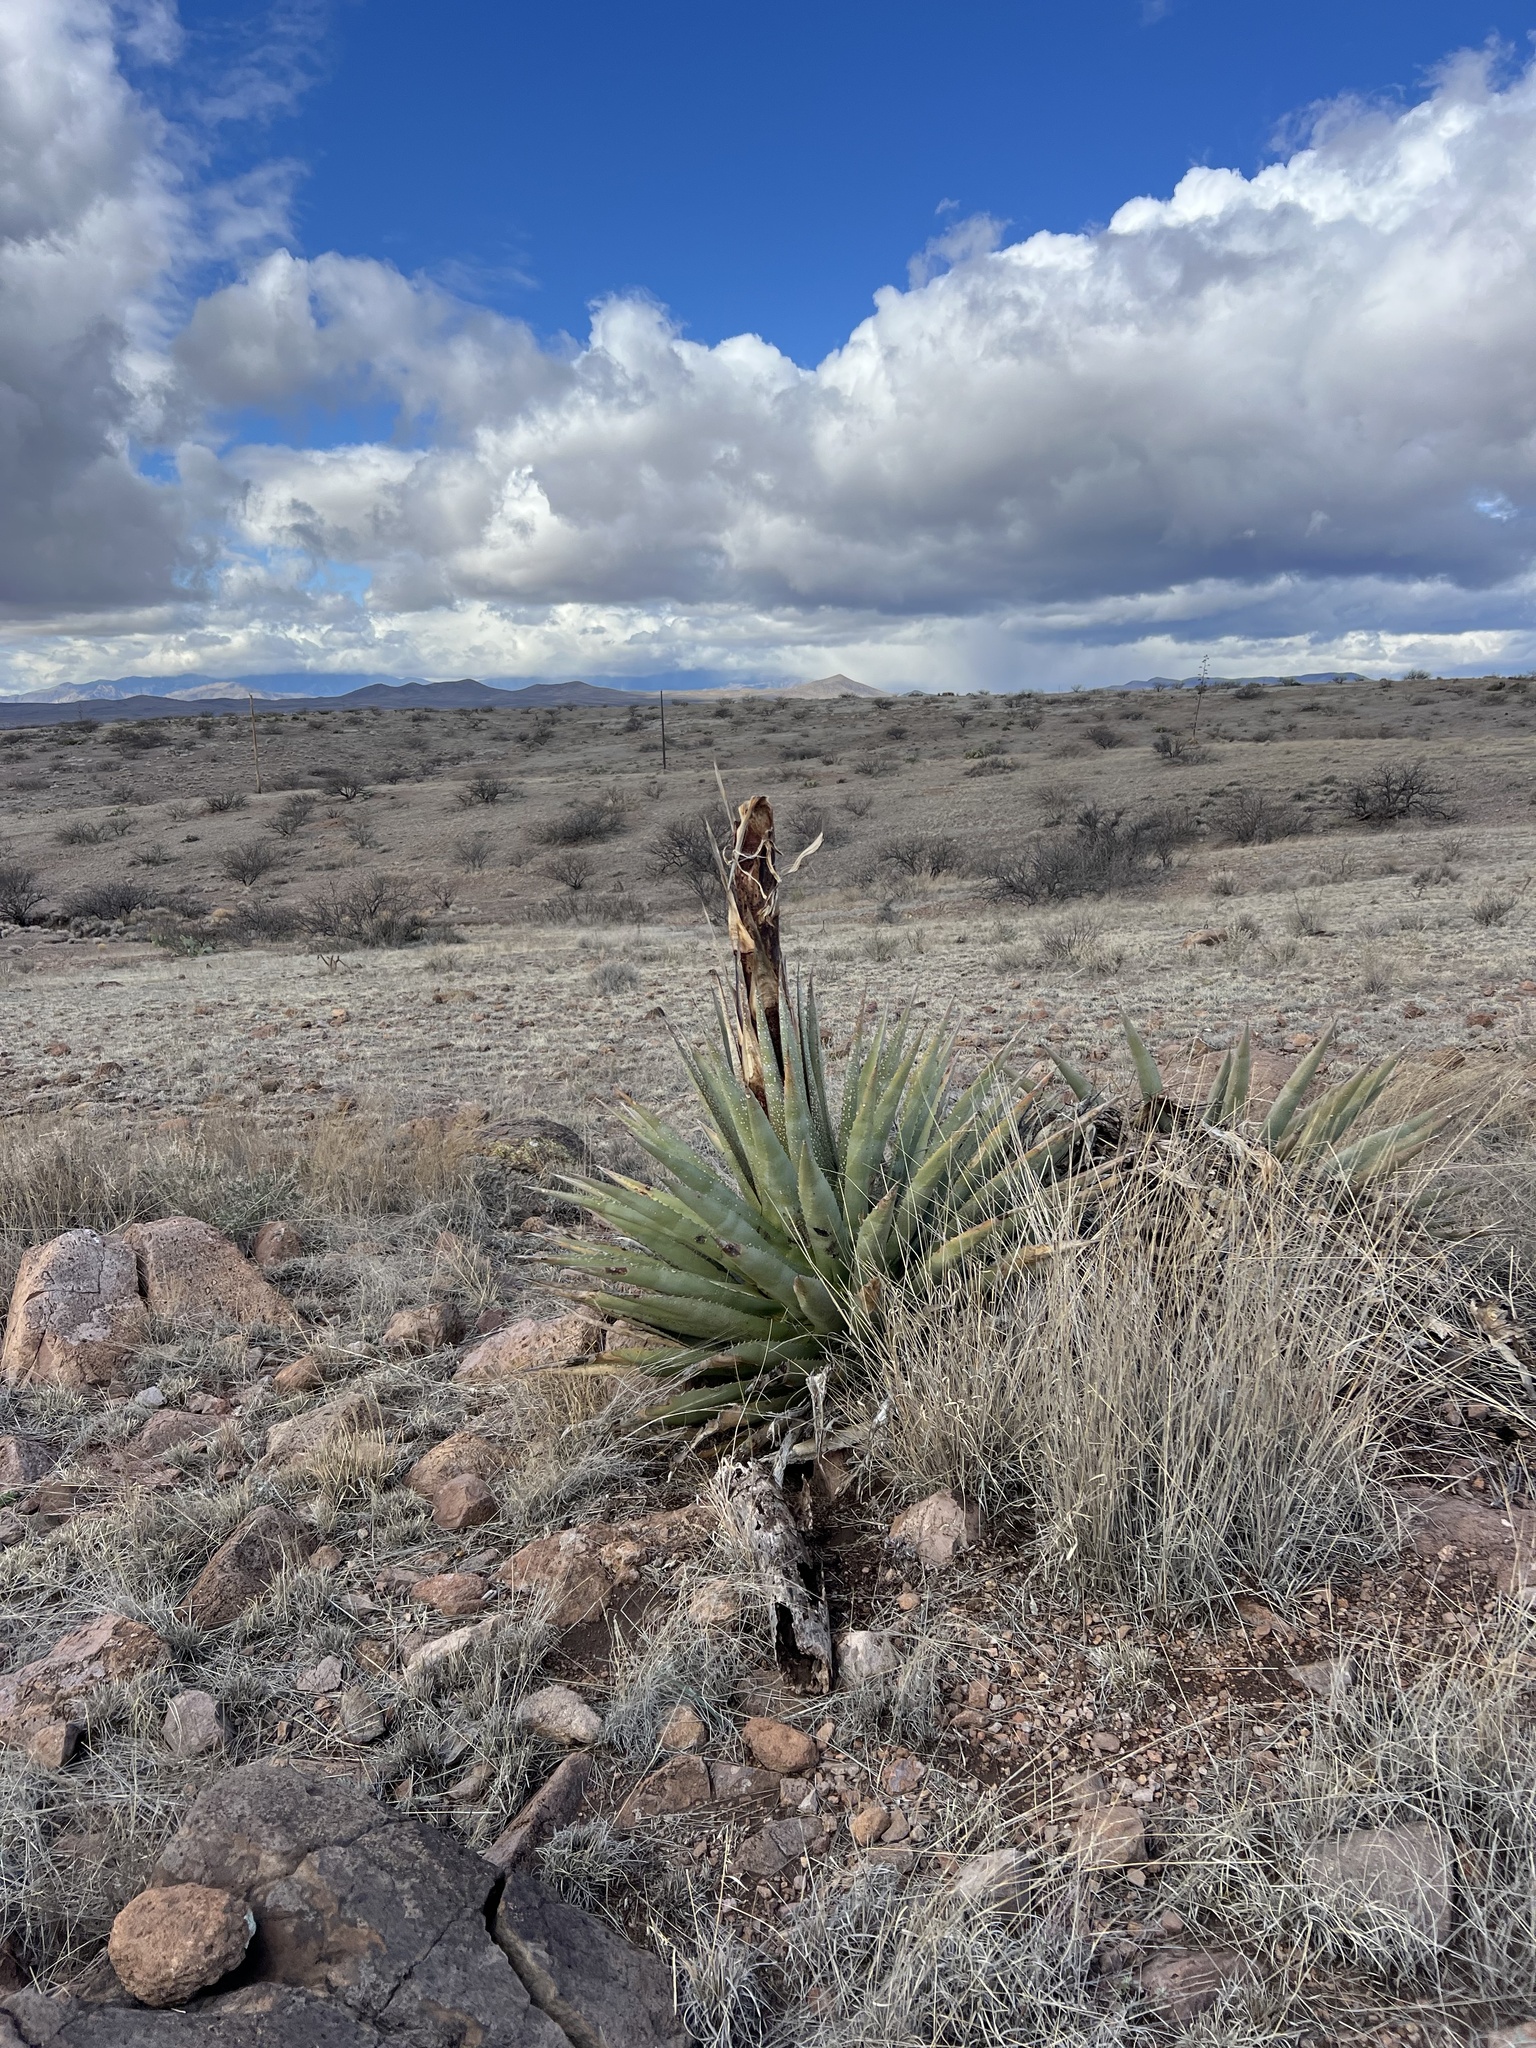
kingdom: Plantae
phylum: Tracheophyta
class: Liliopsida
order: Asparagales
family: Asparagaceae
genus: Agave
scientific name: Agave palmeri
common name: Palmer agave
